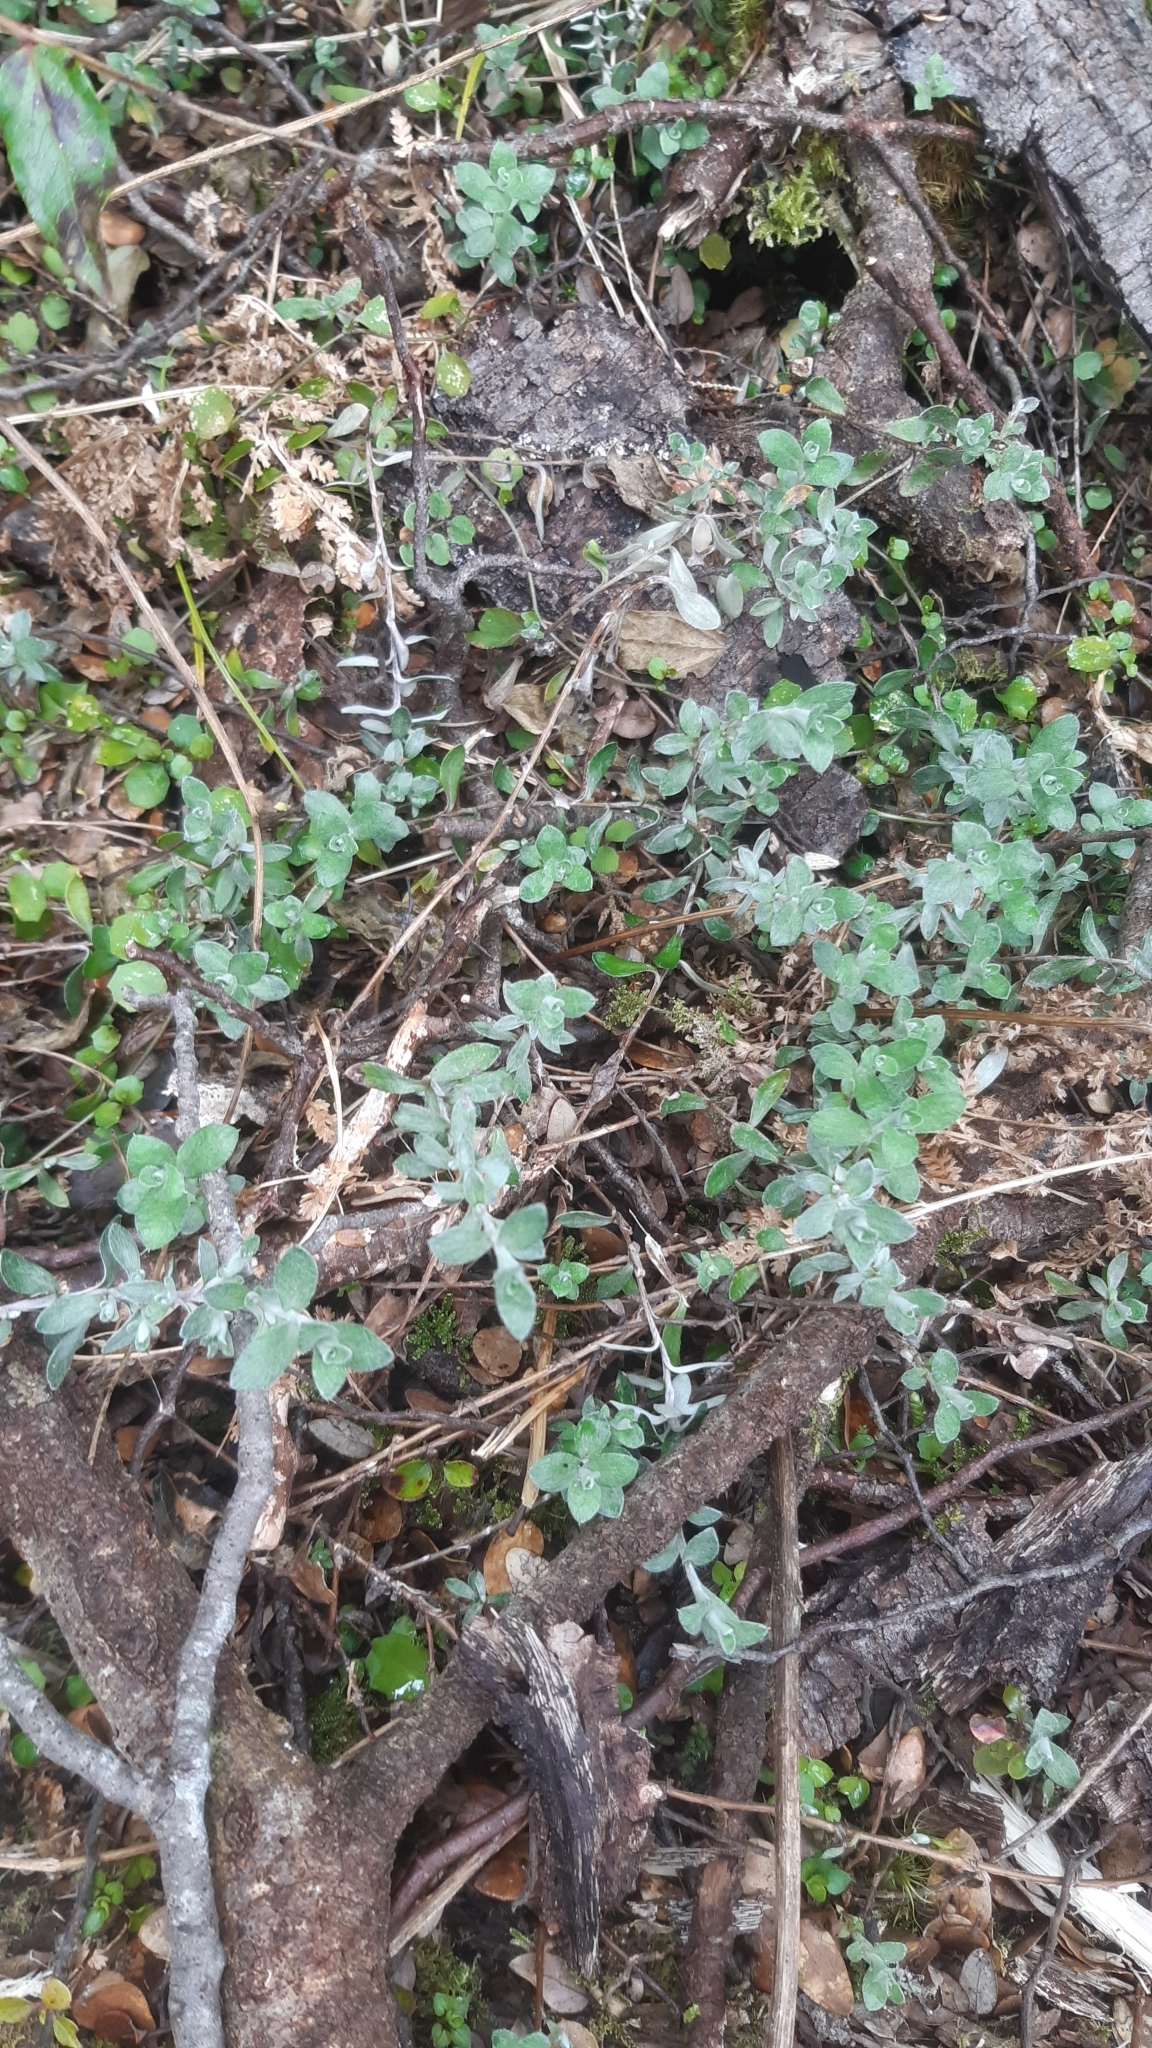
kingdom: Plantae
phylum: Tracheophyta
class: Magnoliopsida
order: Asterales
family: Asteraceae
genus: Anaphalioides
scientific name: Anaphalioides bellidioides
